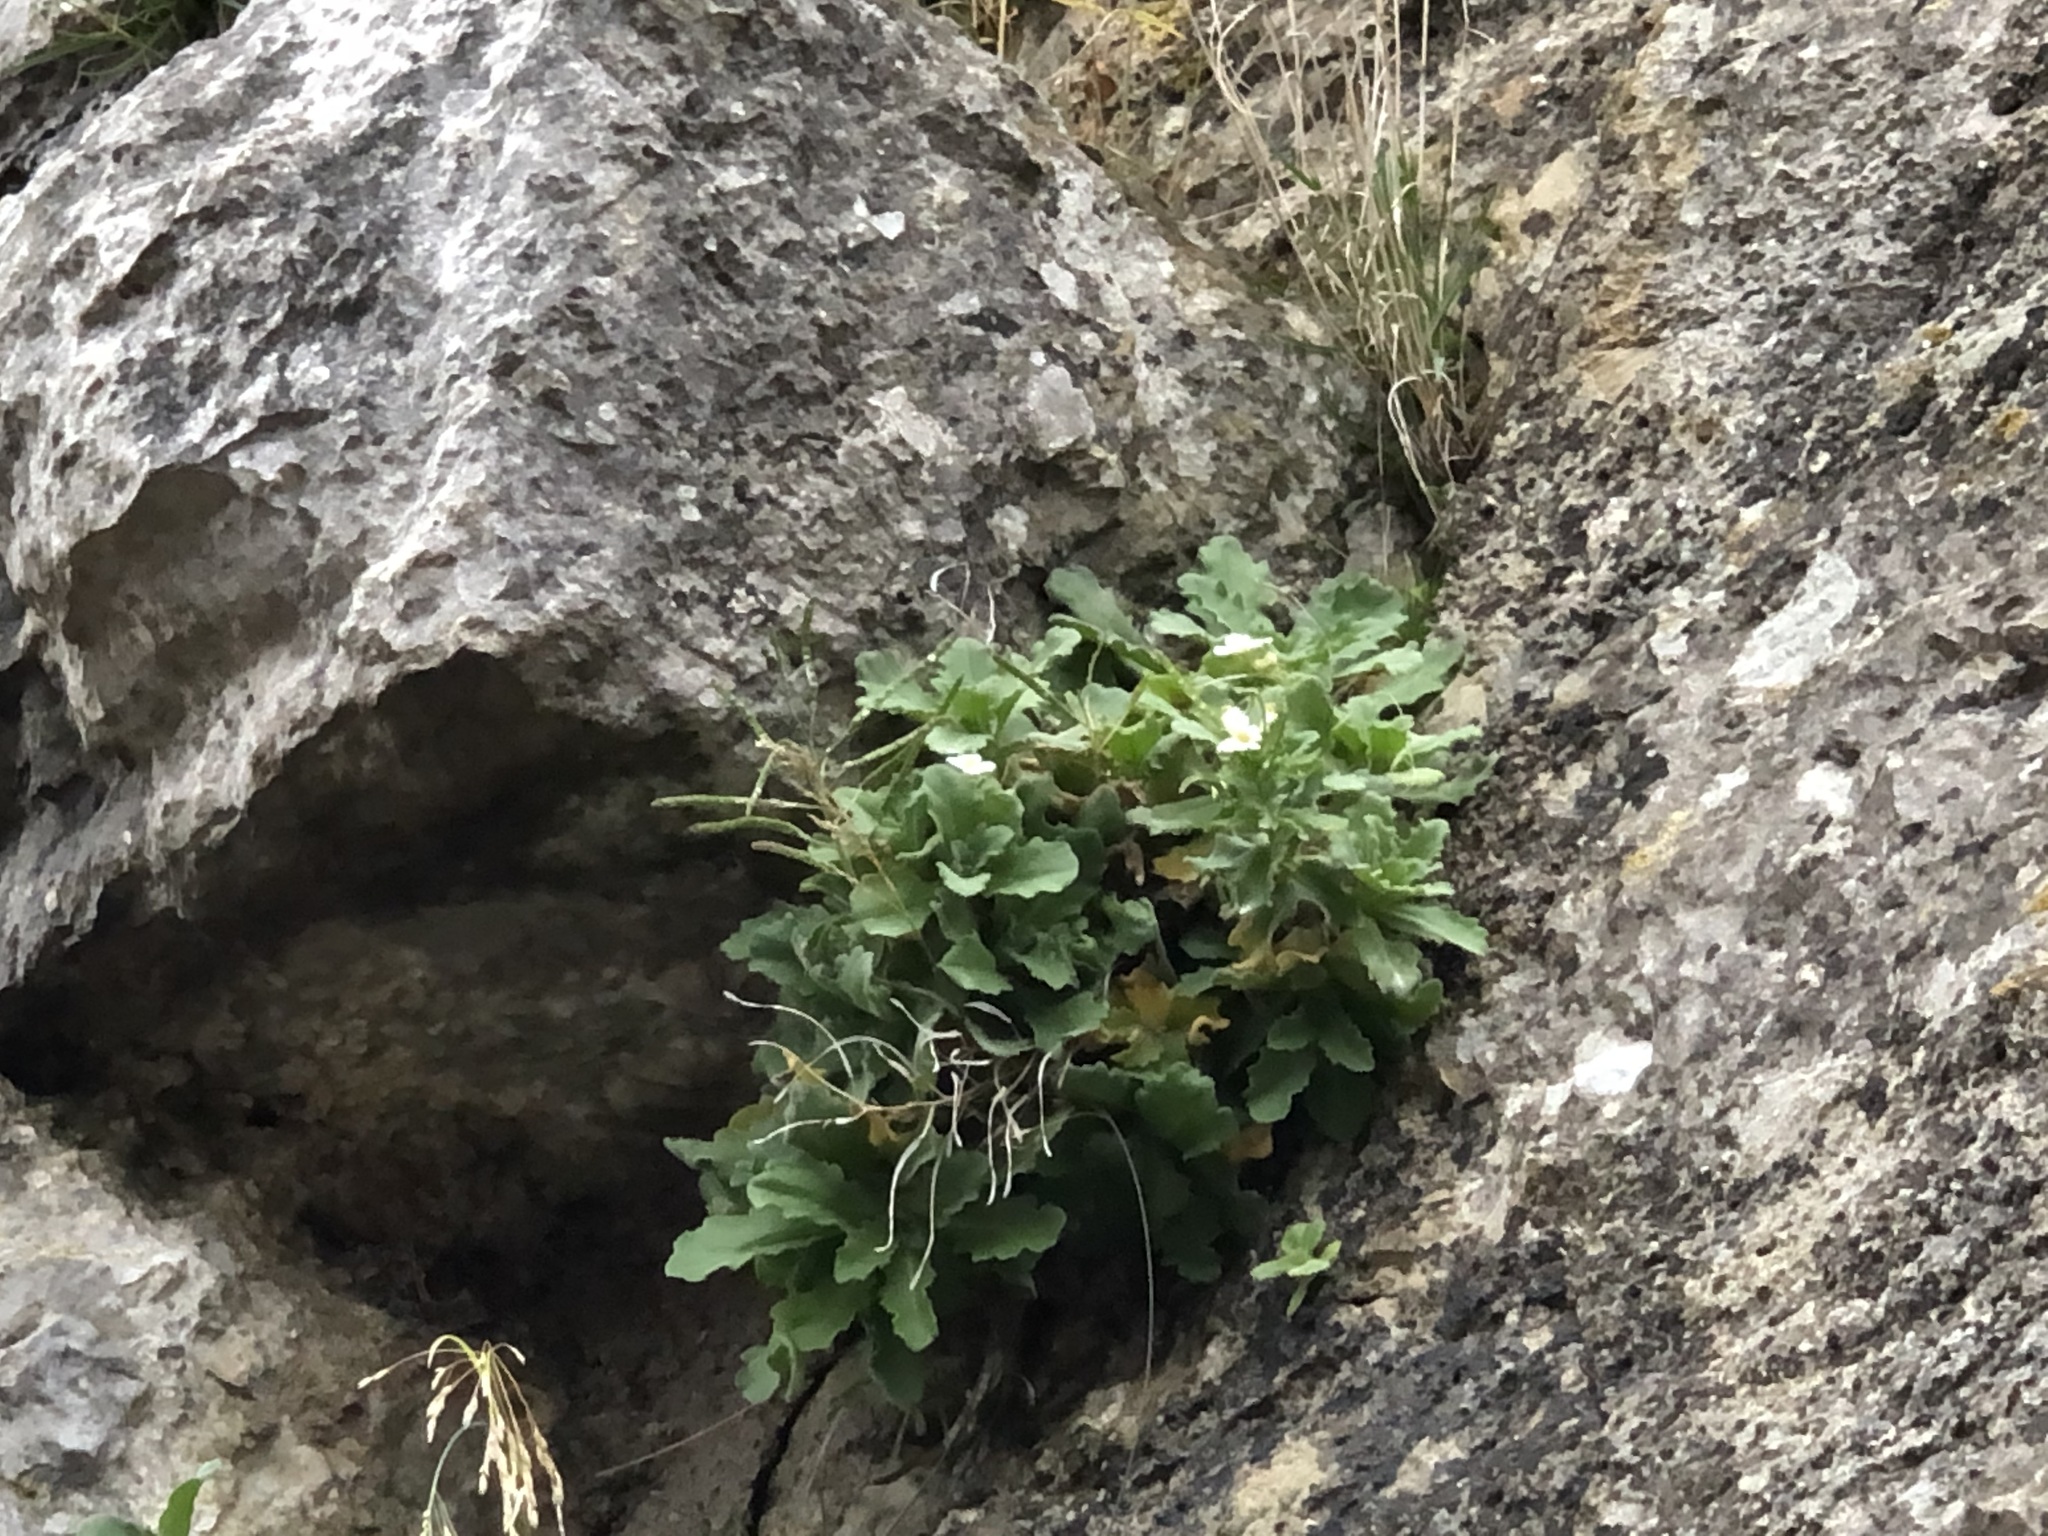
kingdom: Plantae
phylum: Tracheophyta
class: Magnoliopsida
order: Brassicales
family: Brassicaceae
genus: Arabis
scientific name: Arabis alpina
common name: Alpine rock-cress
